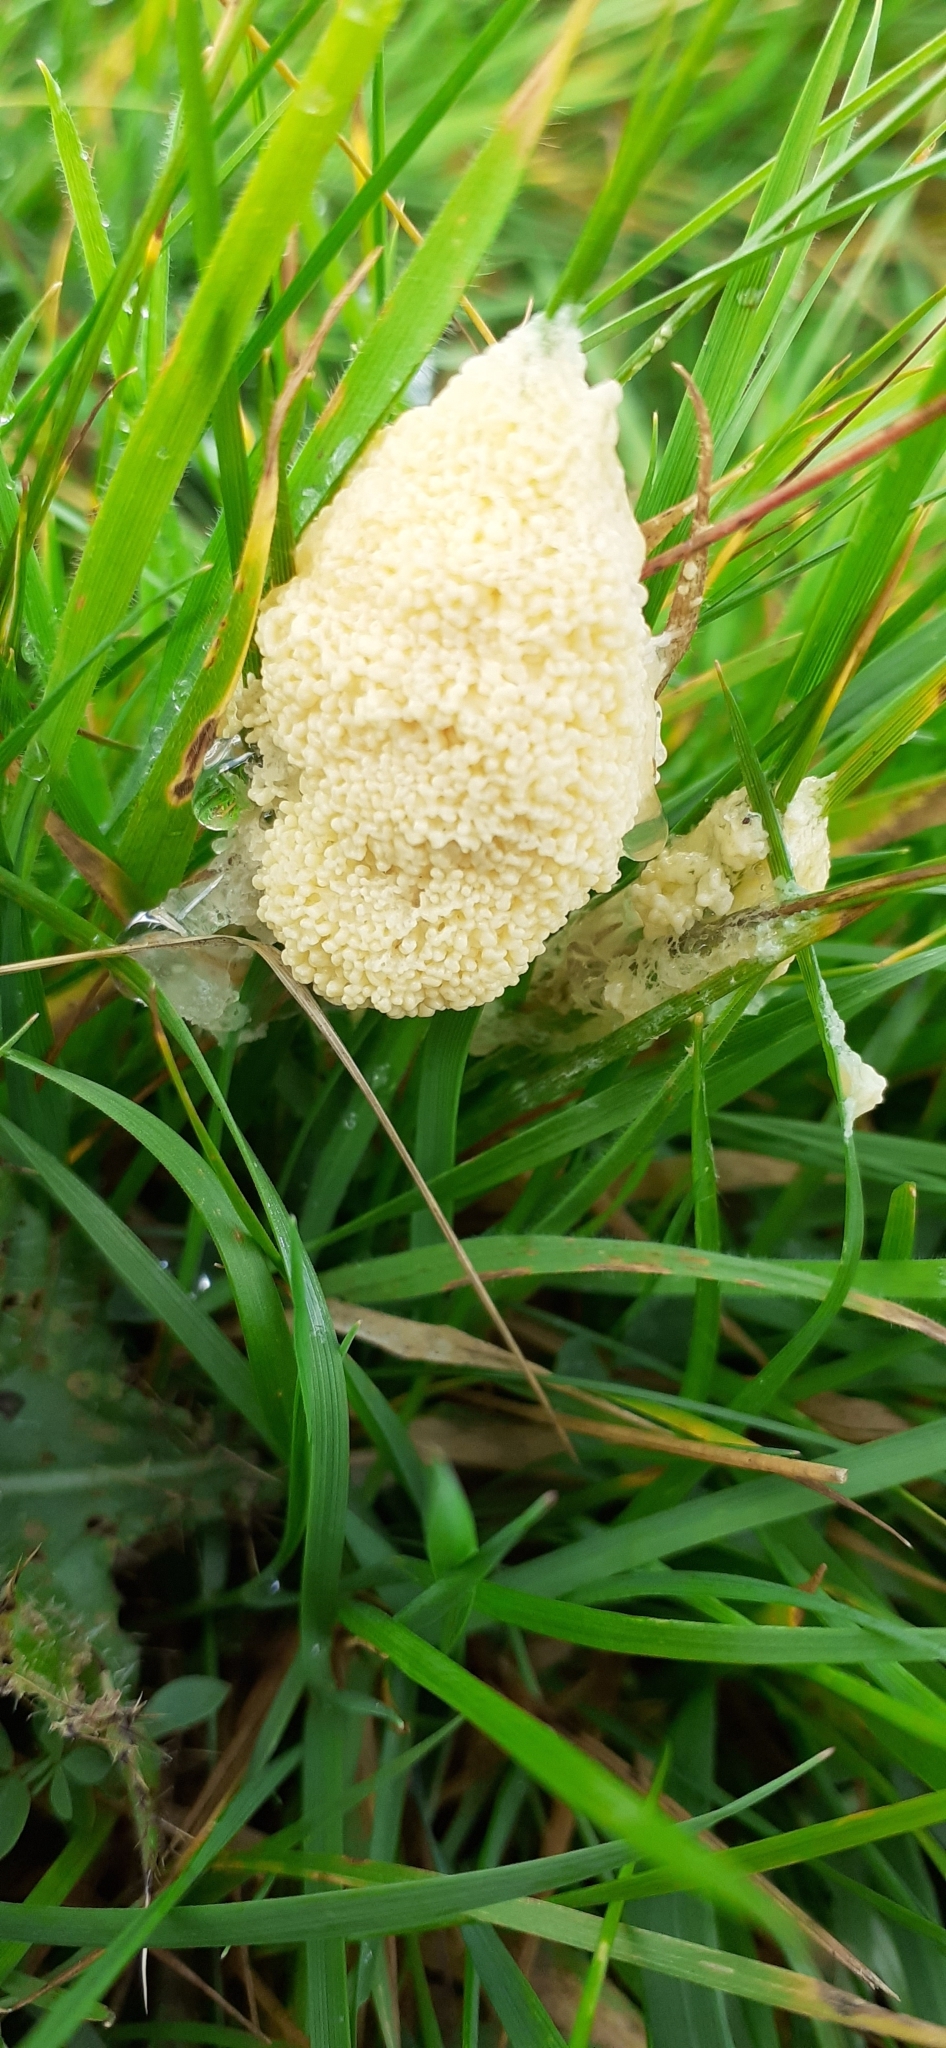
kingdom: Protozoa
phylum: Mycetozoa
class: Myxomycetes
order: Physarales
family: Physaraceae
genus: Didymium
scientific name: Didymium
